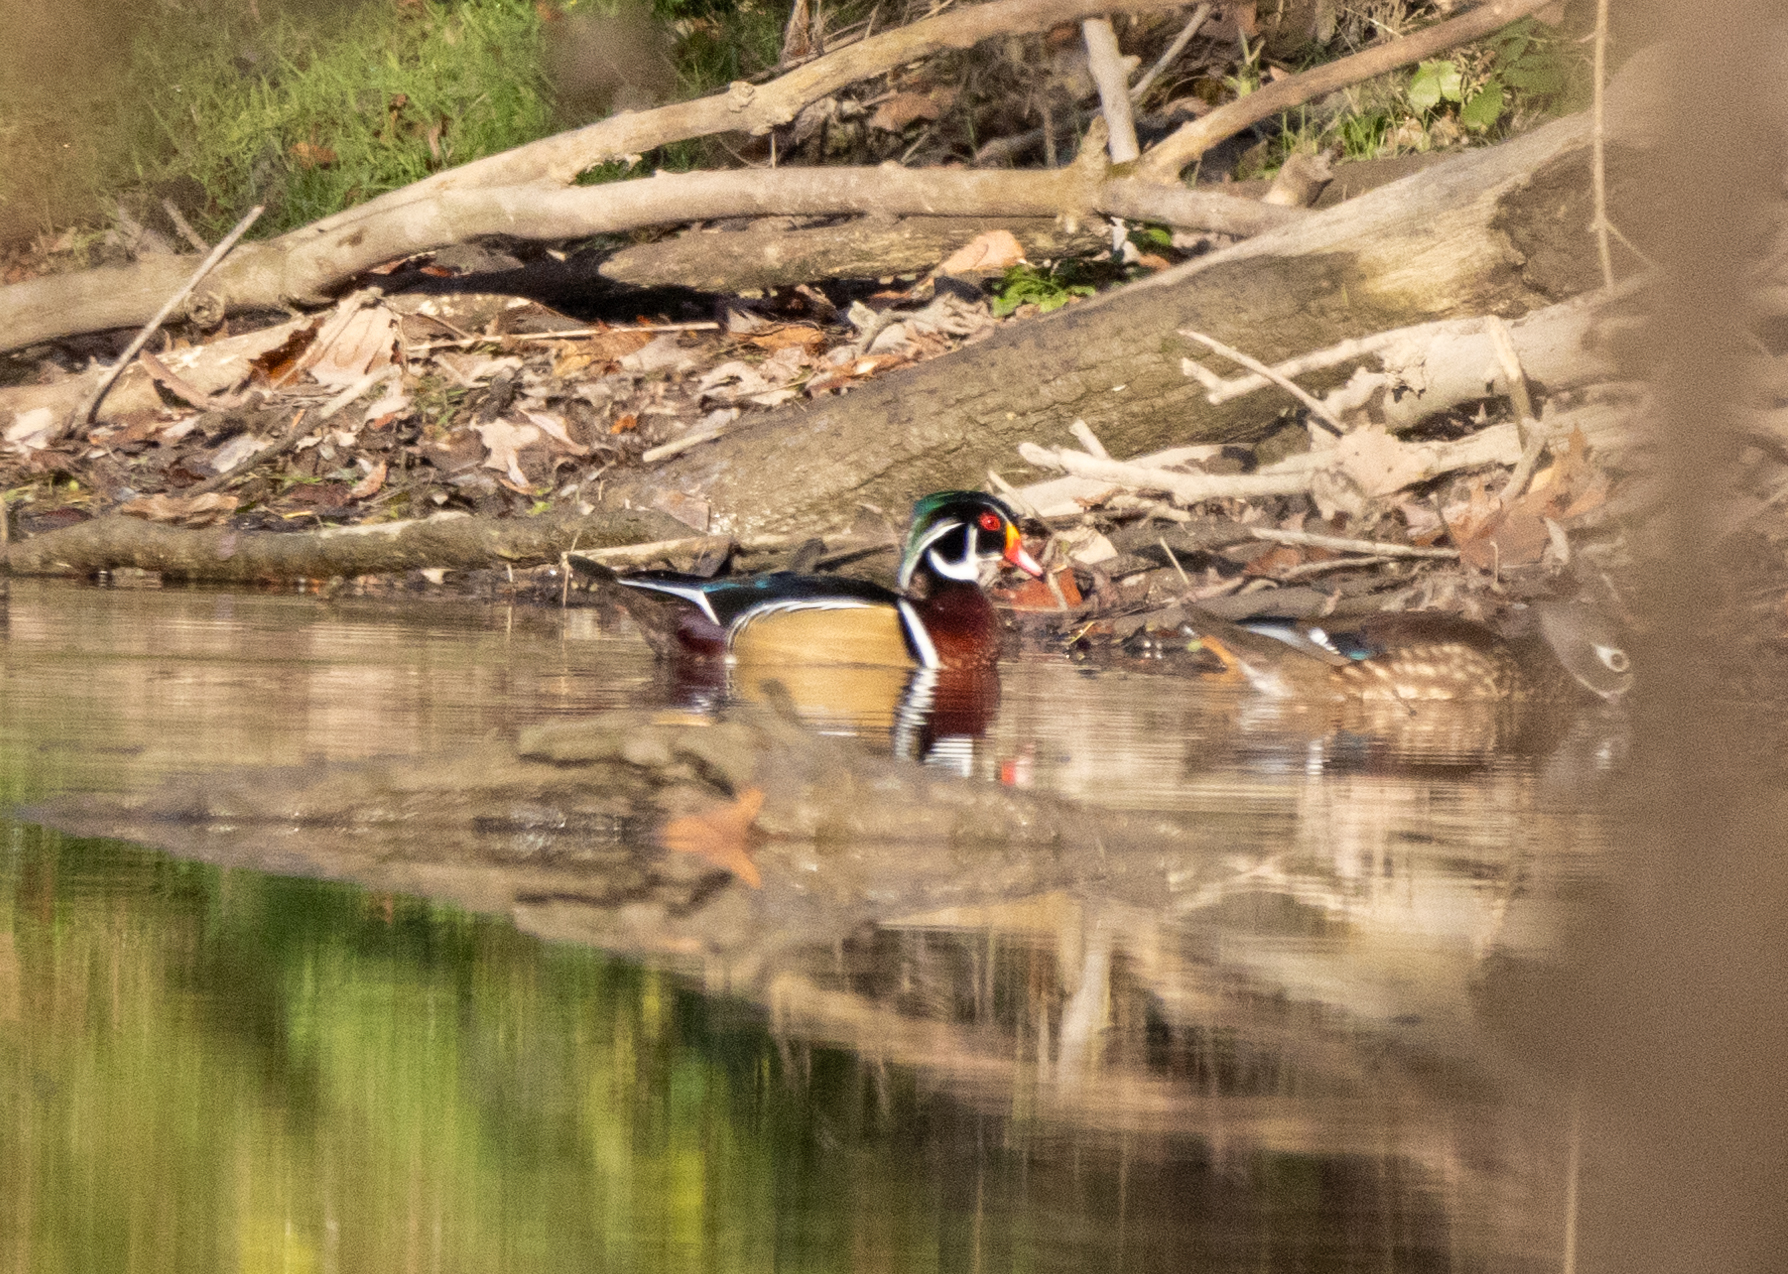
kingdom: Animalia
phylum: Chordata
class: Aves
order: Anseriformes
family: Anatidae
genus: Aix
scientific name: Aix sponsa
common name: Wood duck
